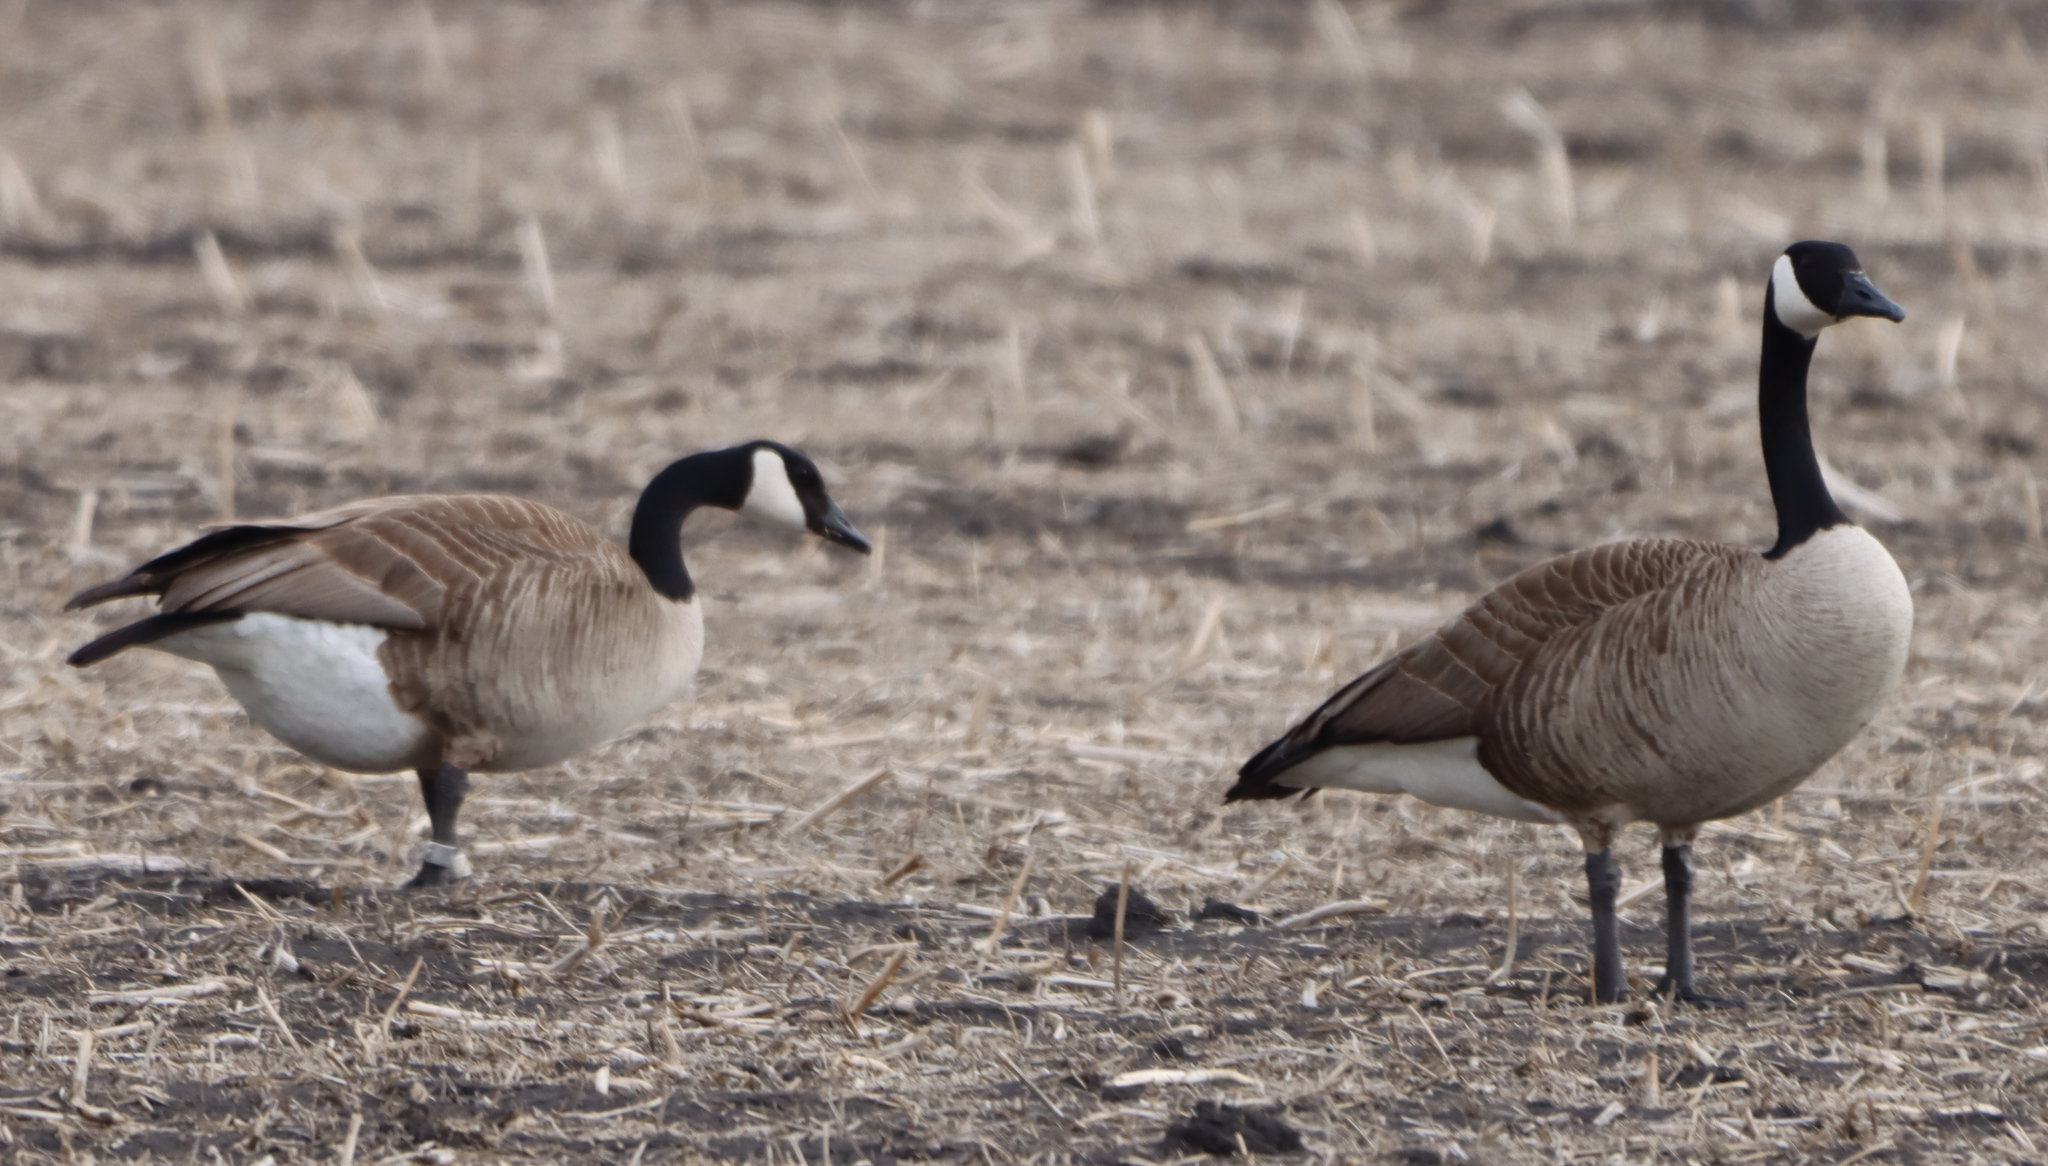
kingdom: Animalia
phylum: Chordata
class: Aves
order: Anseriformes
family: Anatidae
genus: Branta
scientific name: Branta canadensis
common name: Canada goose
